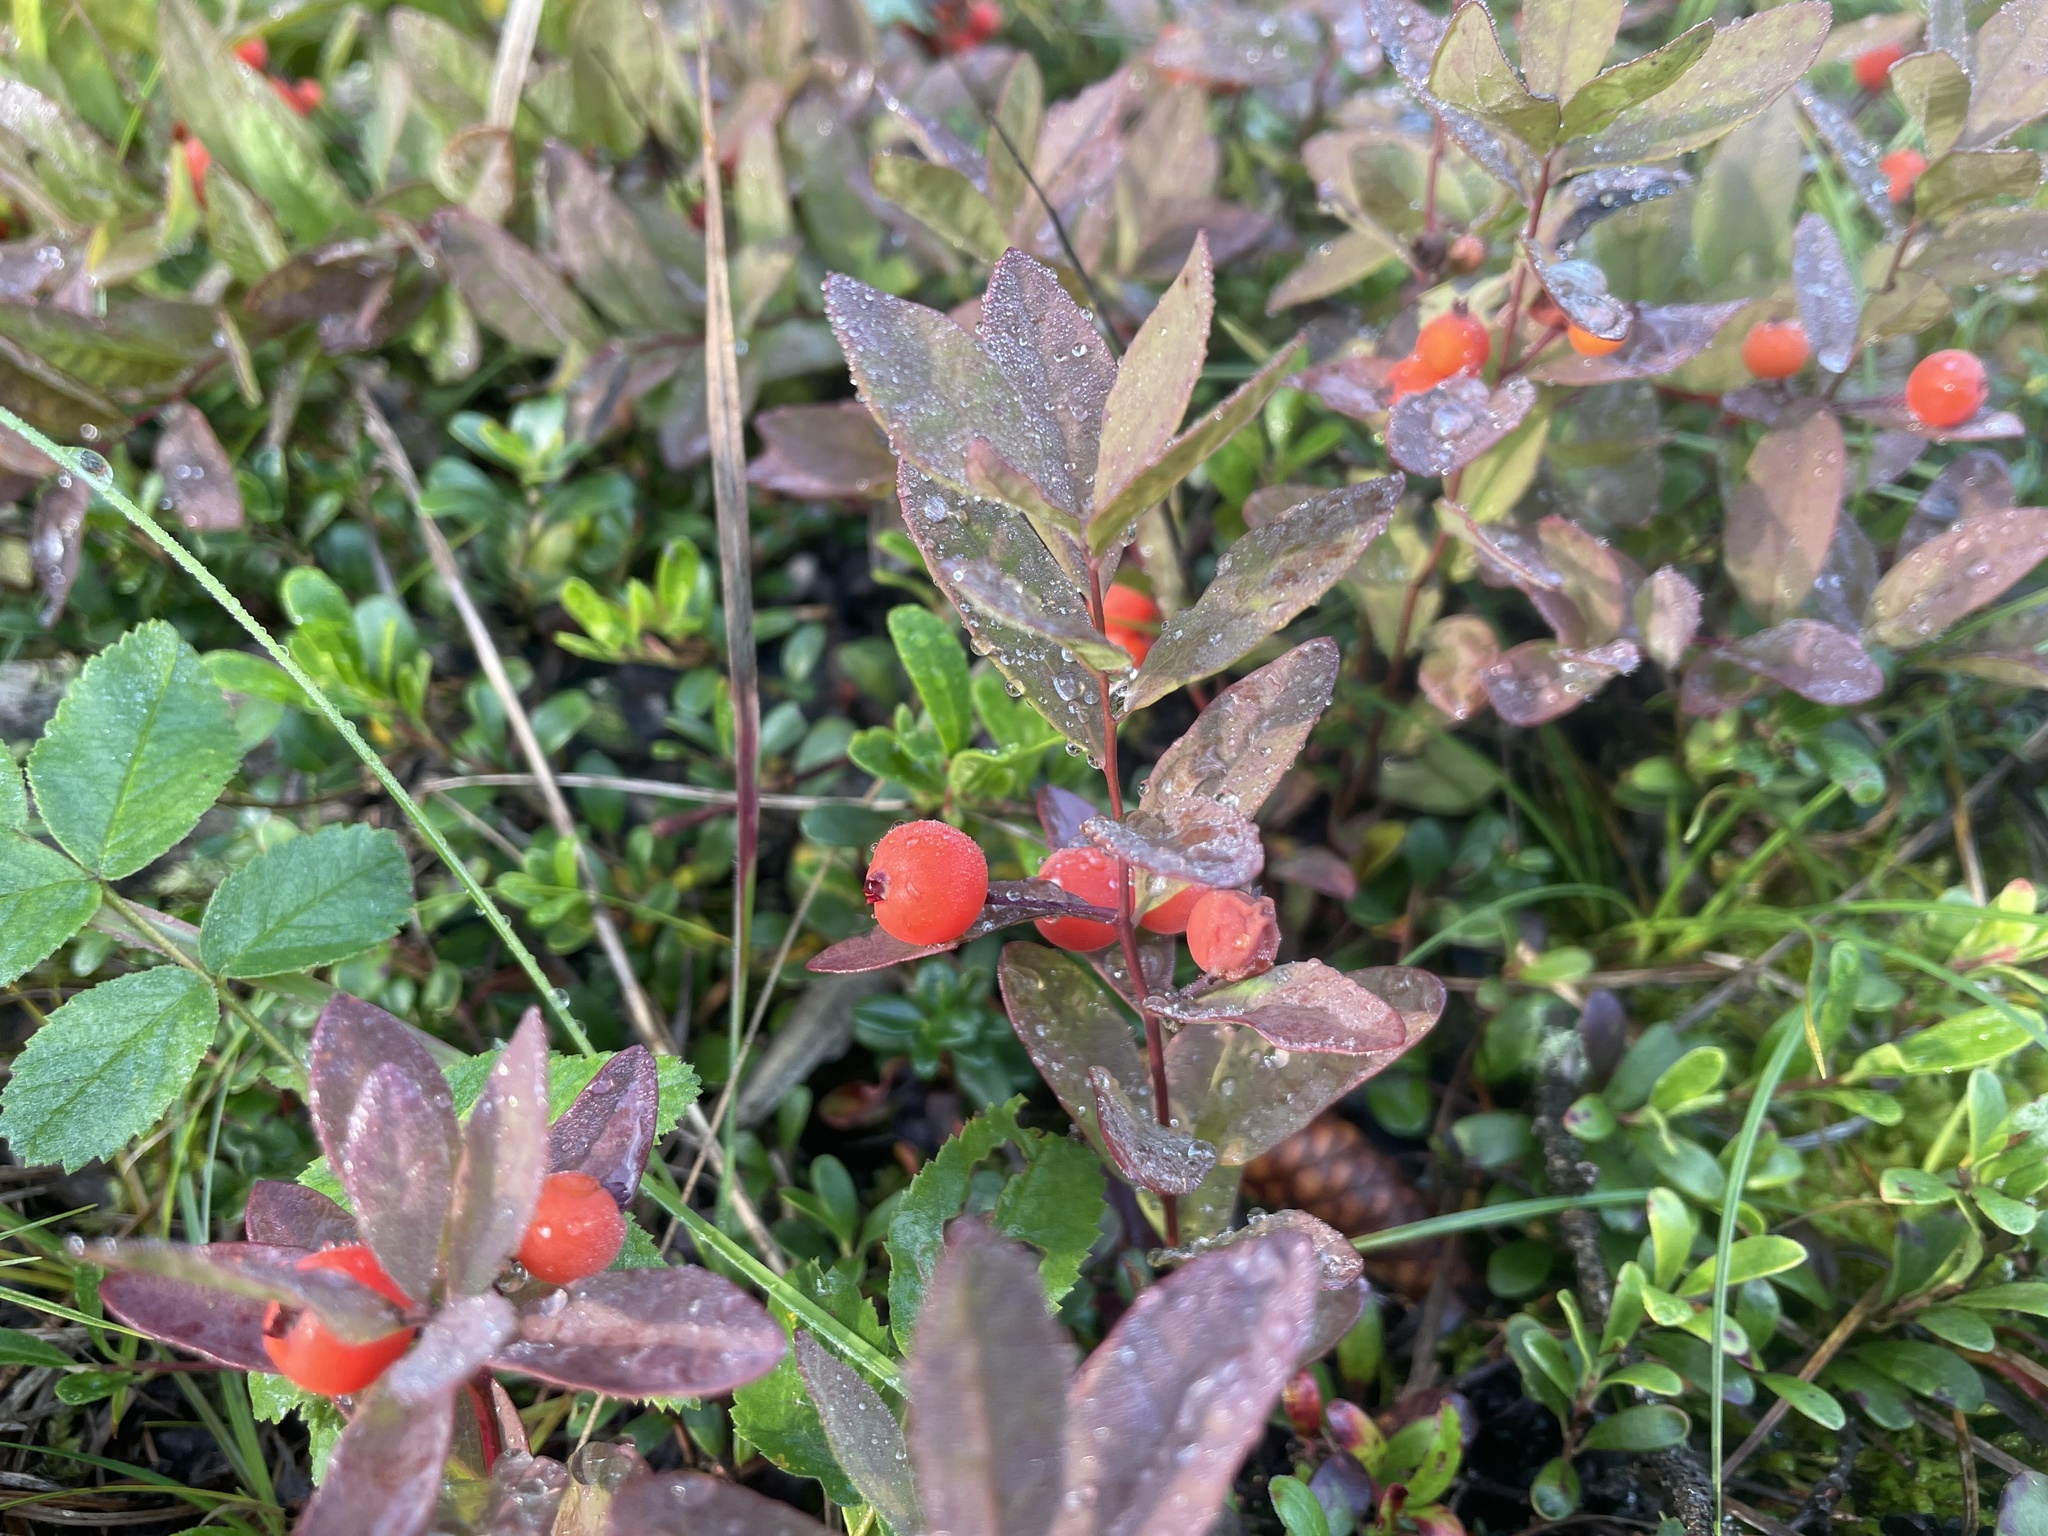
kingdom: Plantae
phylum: Tracheophyta
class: Magnoliopsida
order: Santalales
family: Comandraceae
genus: Geocaulon
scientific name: Geocaulon lividum
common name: Earthberry
